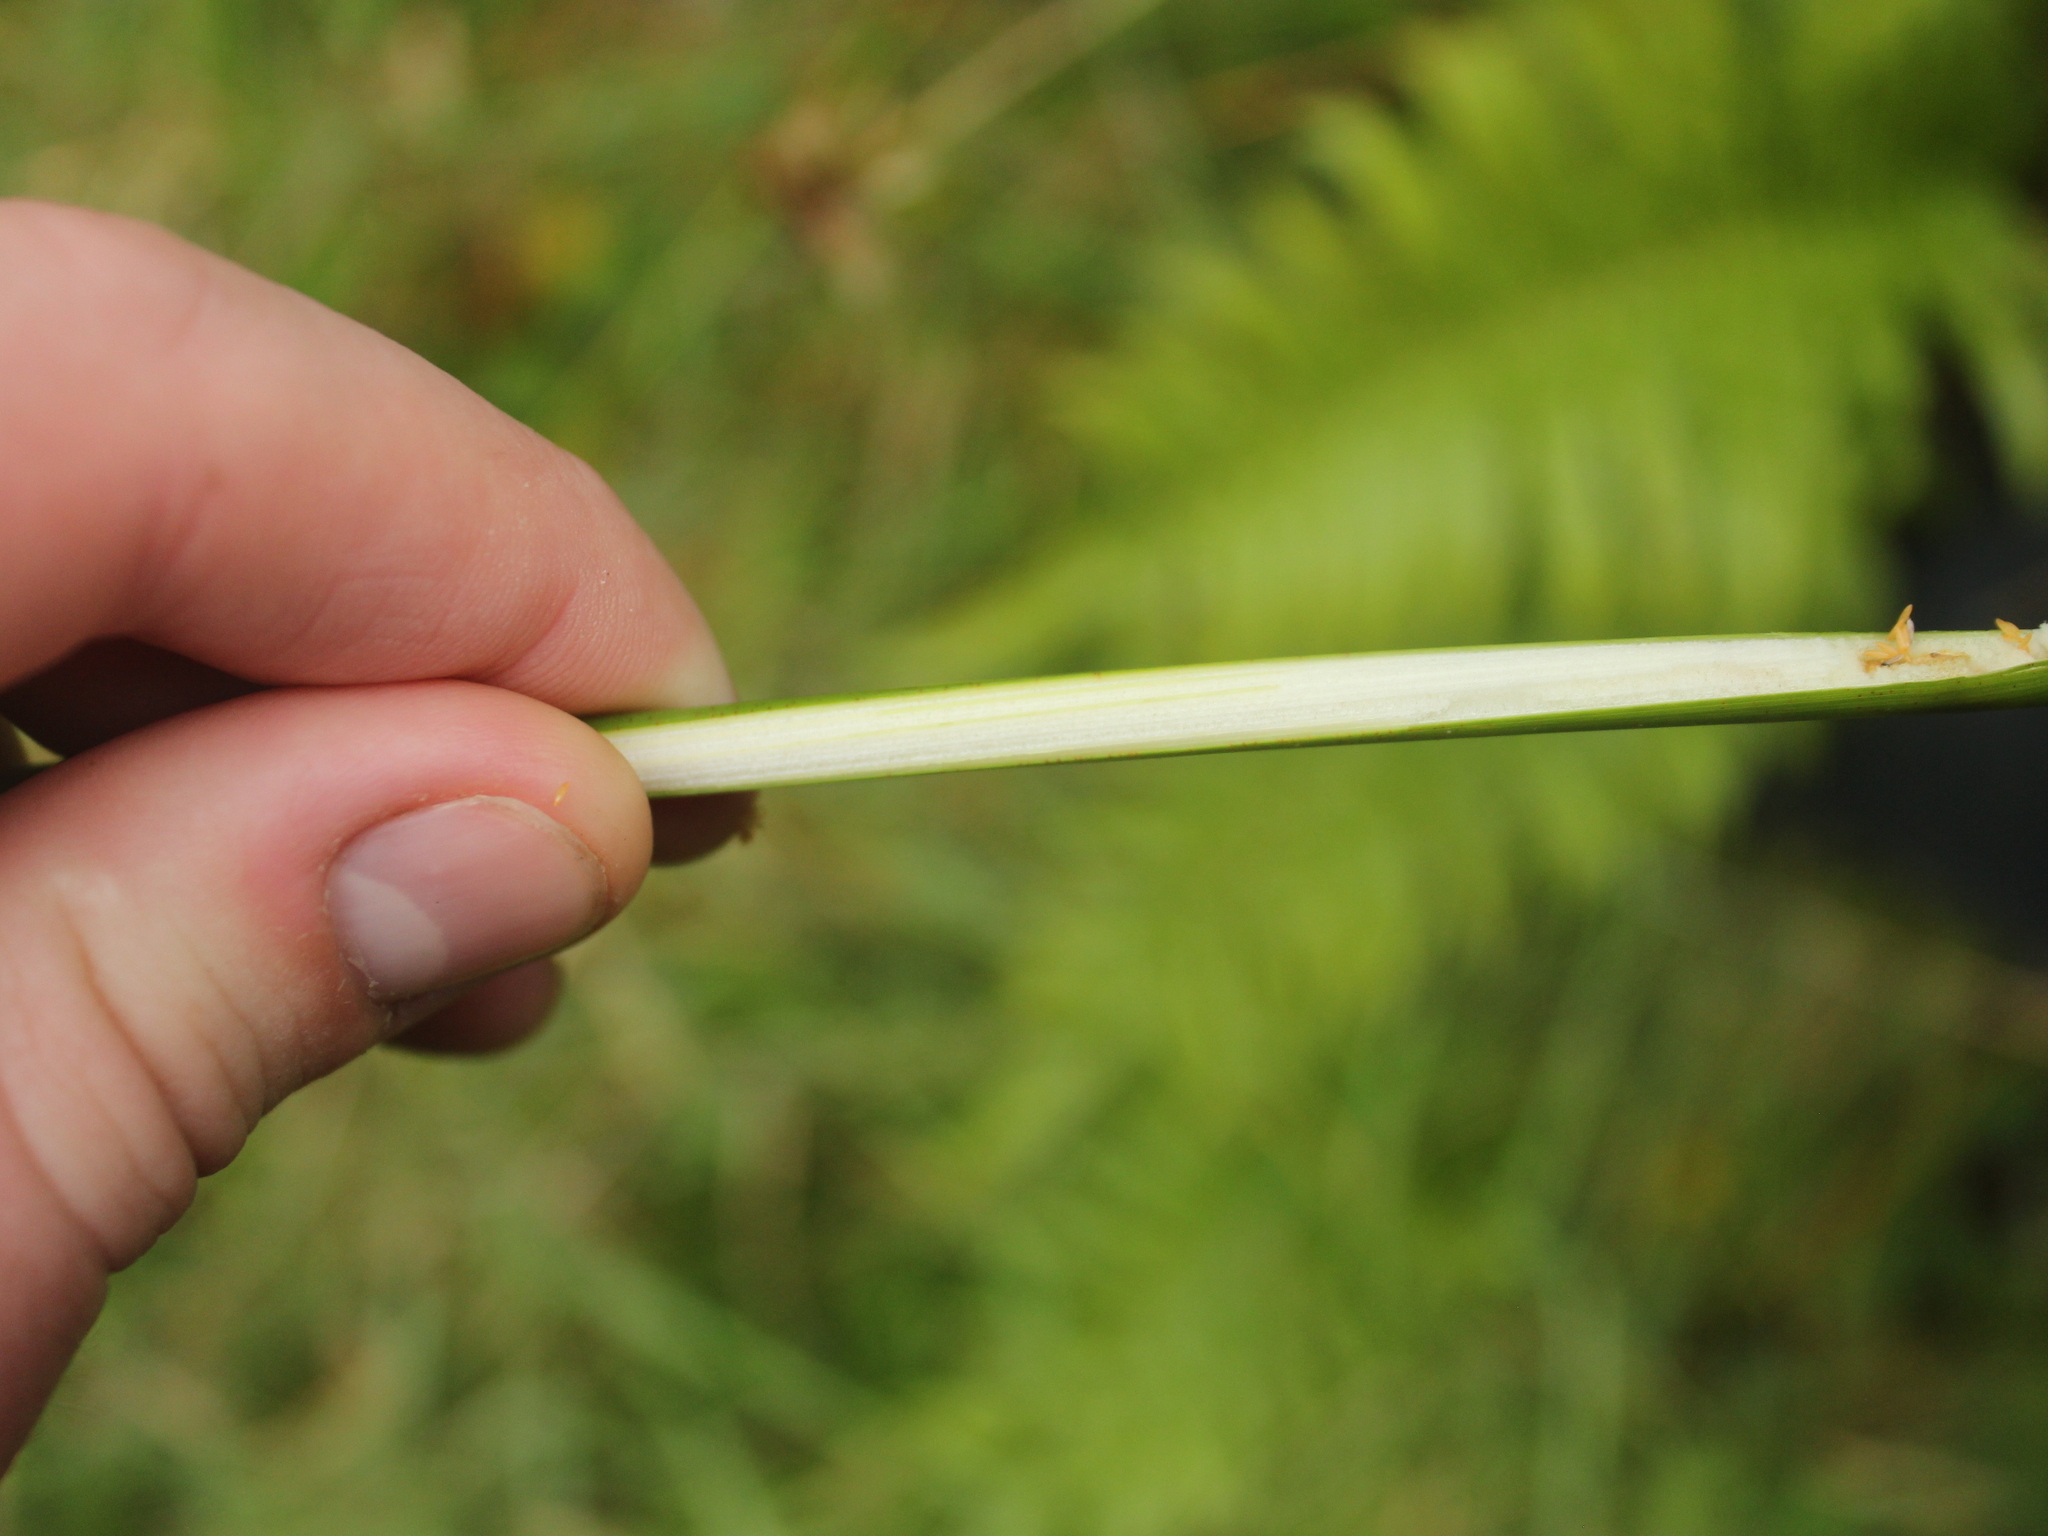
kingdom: Plantae
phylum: Tracheophyta
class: Liliopsida
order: Poales
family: Cyperaceae
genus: Ficinia
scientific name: Ficinia nodosa
